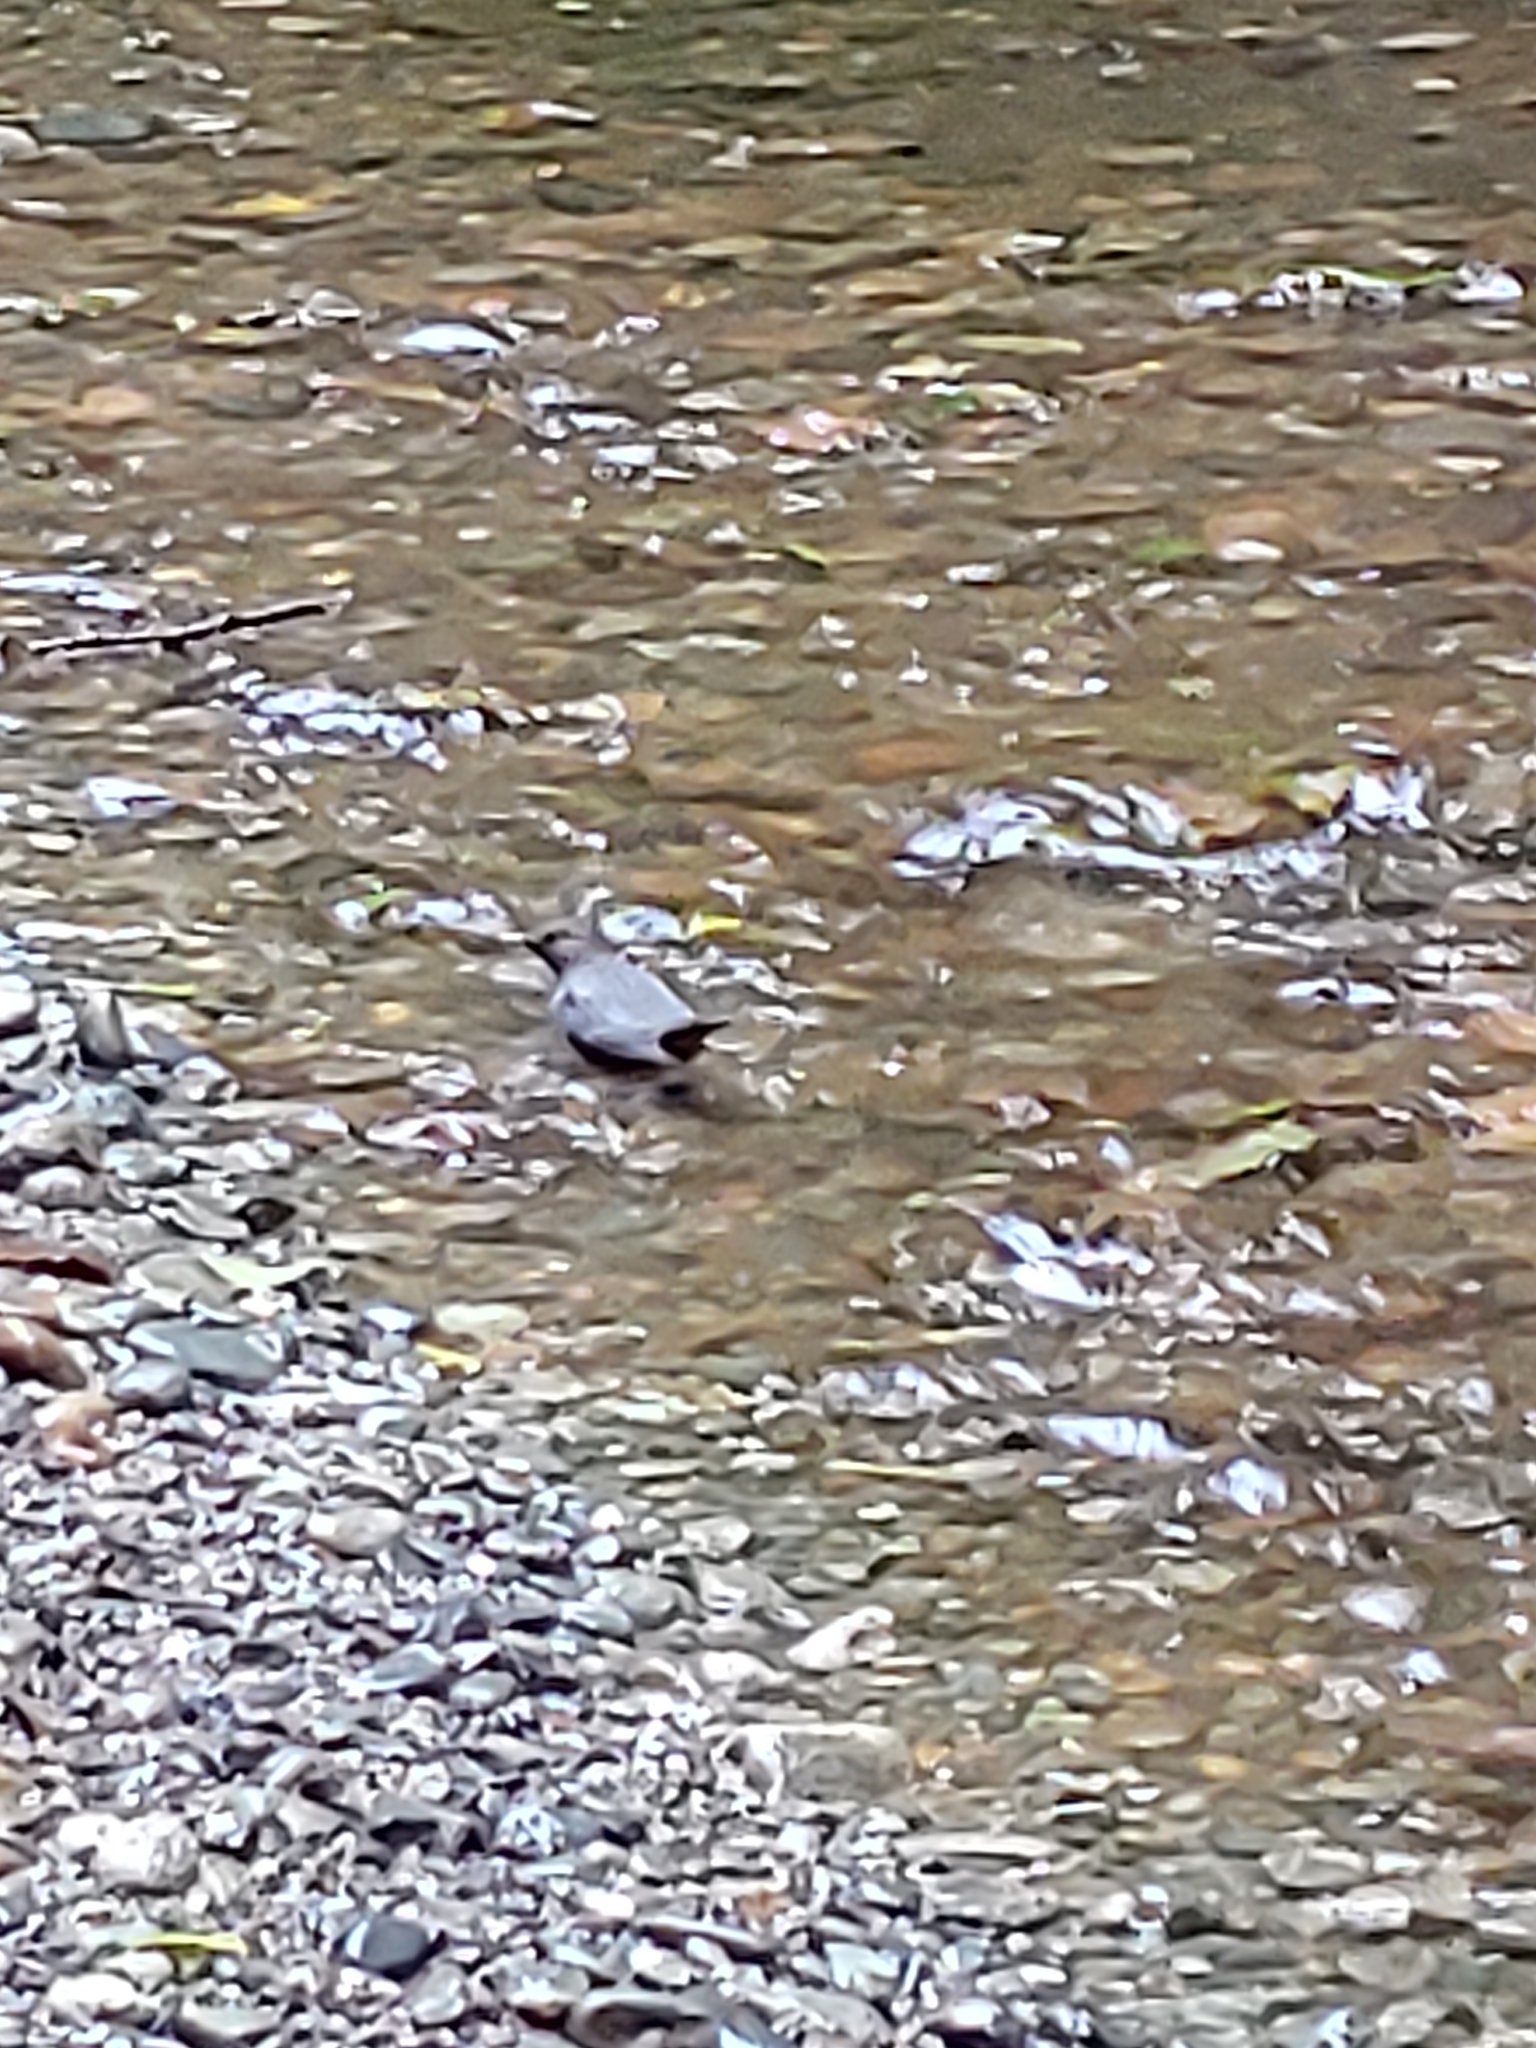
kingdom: Animalia
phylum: Chordata
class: Aves
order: Passeriformes
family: Cinclidae
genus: Cinclus
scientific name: Cinclus mexicanus
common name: American dipper
